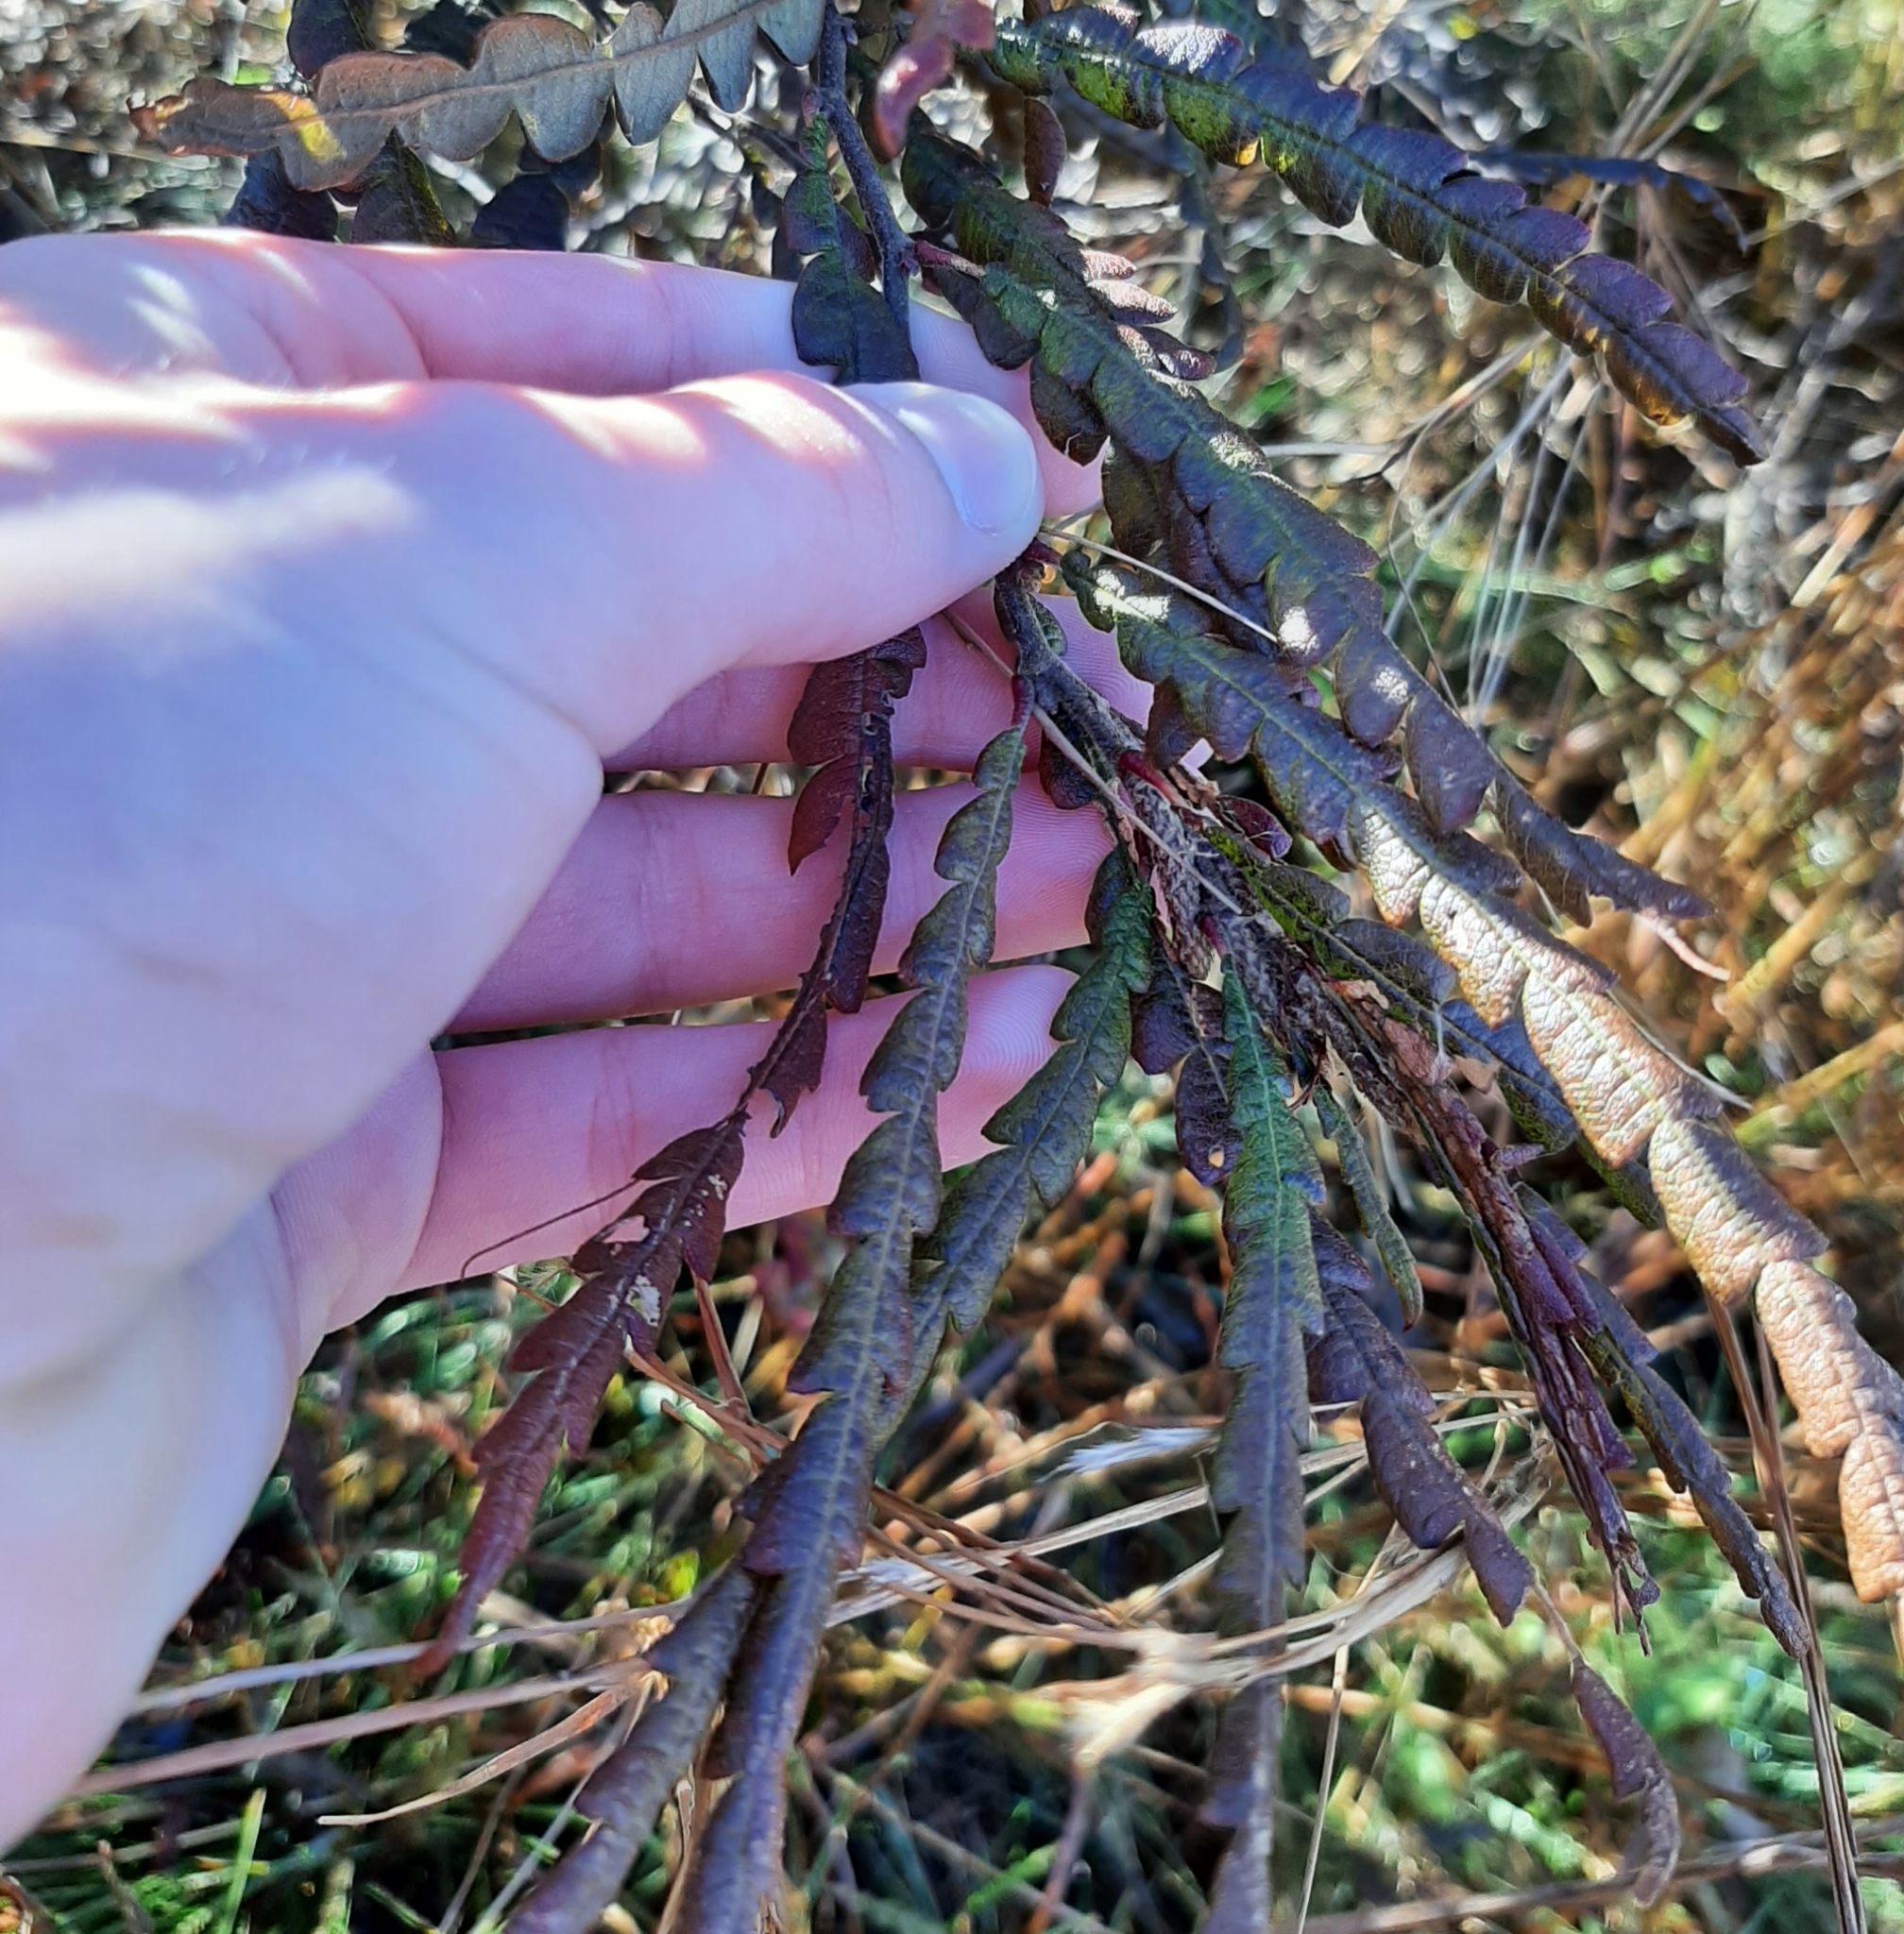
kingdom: Plantae
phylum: Tracheophyta
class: Magnoliopsida
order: Fagales
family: Myricaceae
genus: Comptonia
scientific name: Comptonia peregrina
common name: Sweet-fern
